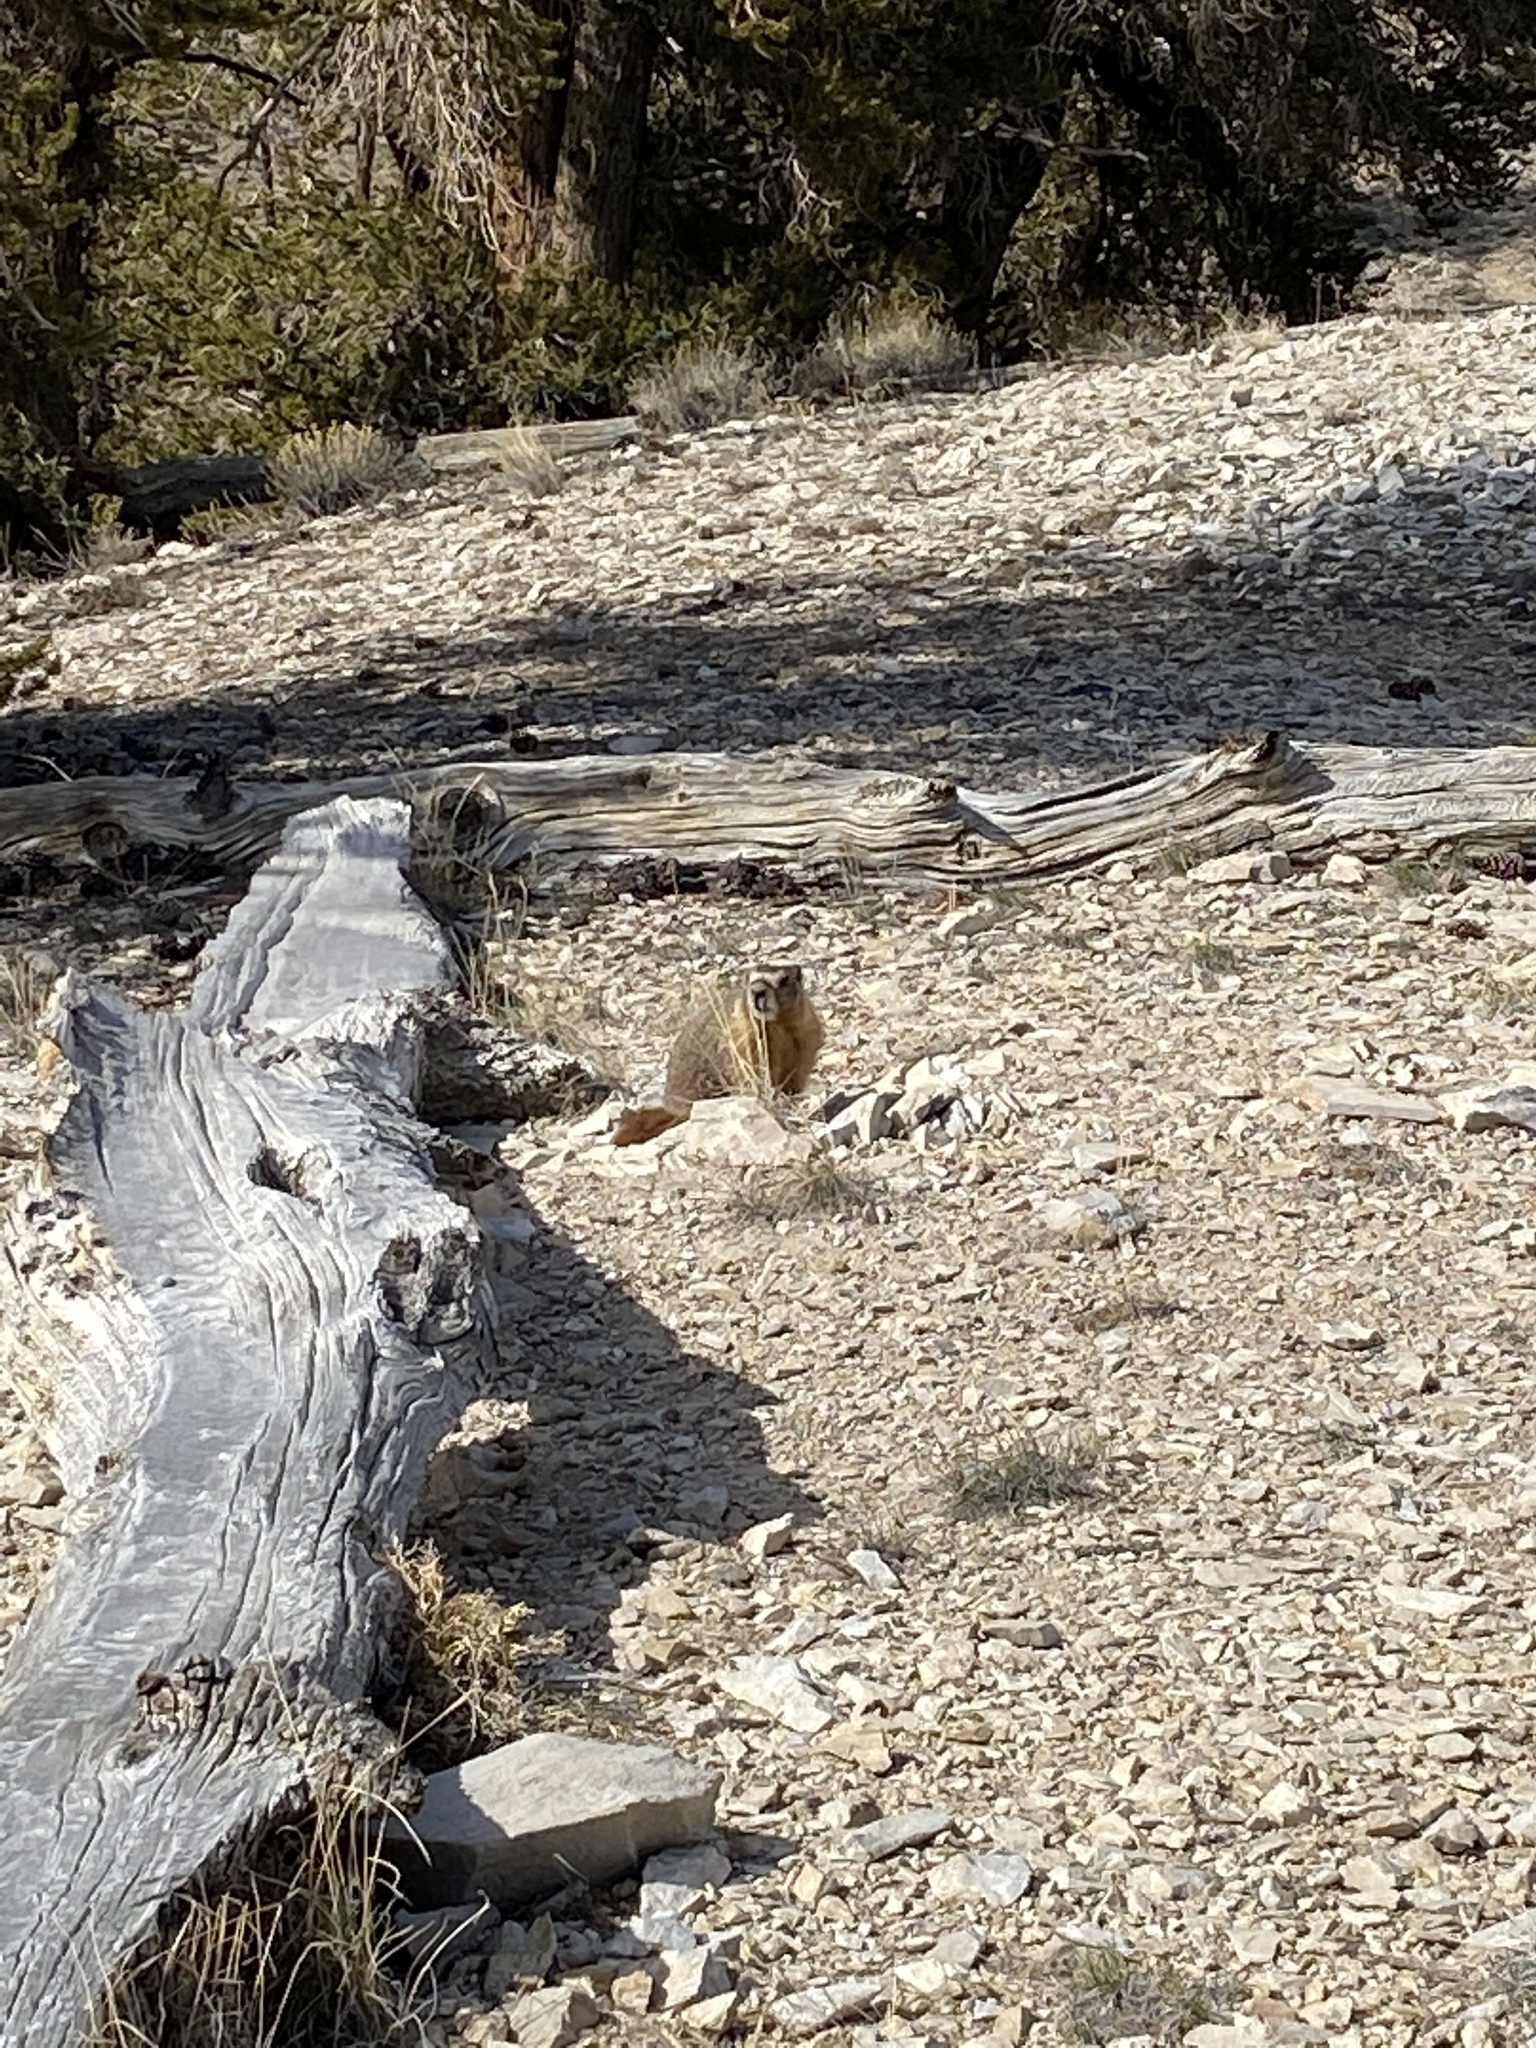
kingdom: Animalia
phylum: Chordata
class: Mammalia
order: Rodentia
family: Sciuridae
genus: Marmota
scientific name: Marmota flaviventris
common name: Yellow-bellied marmot
